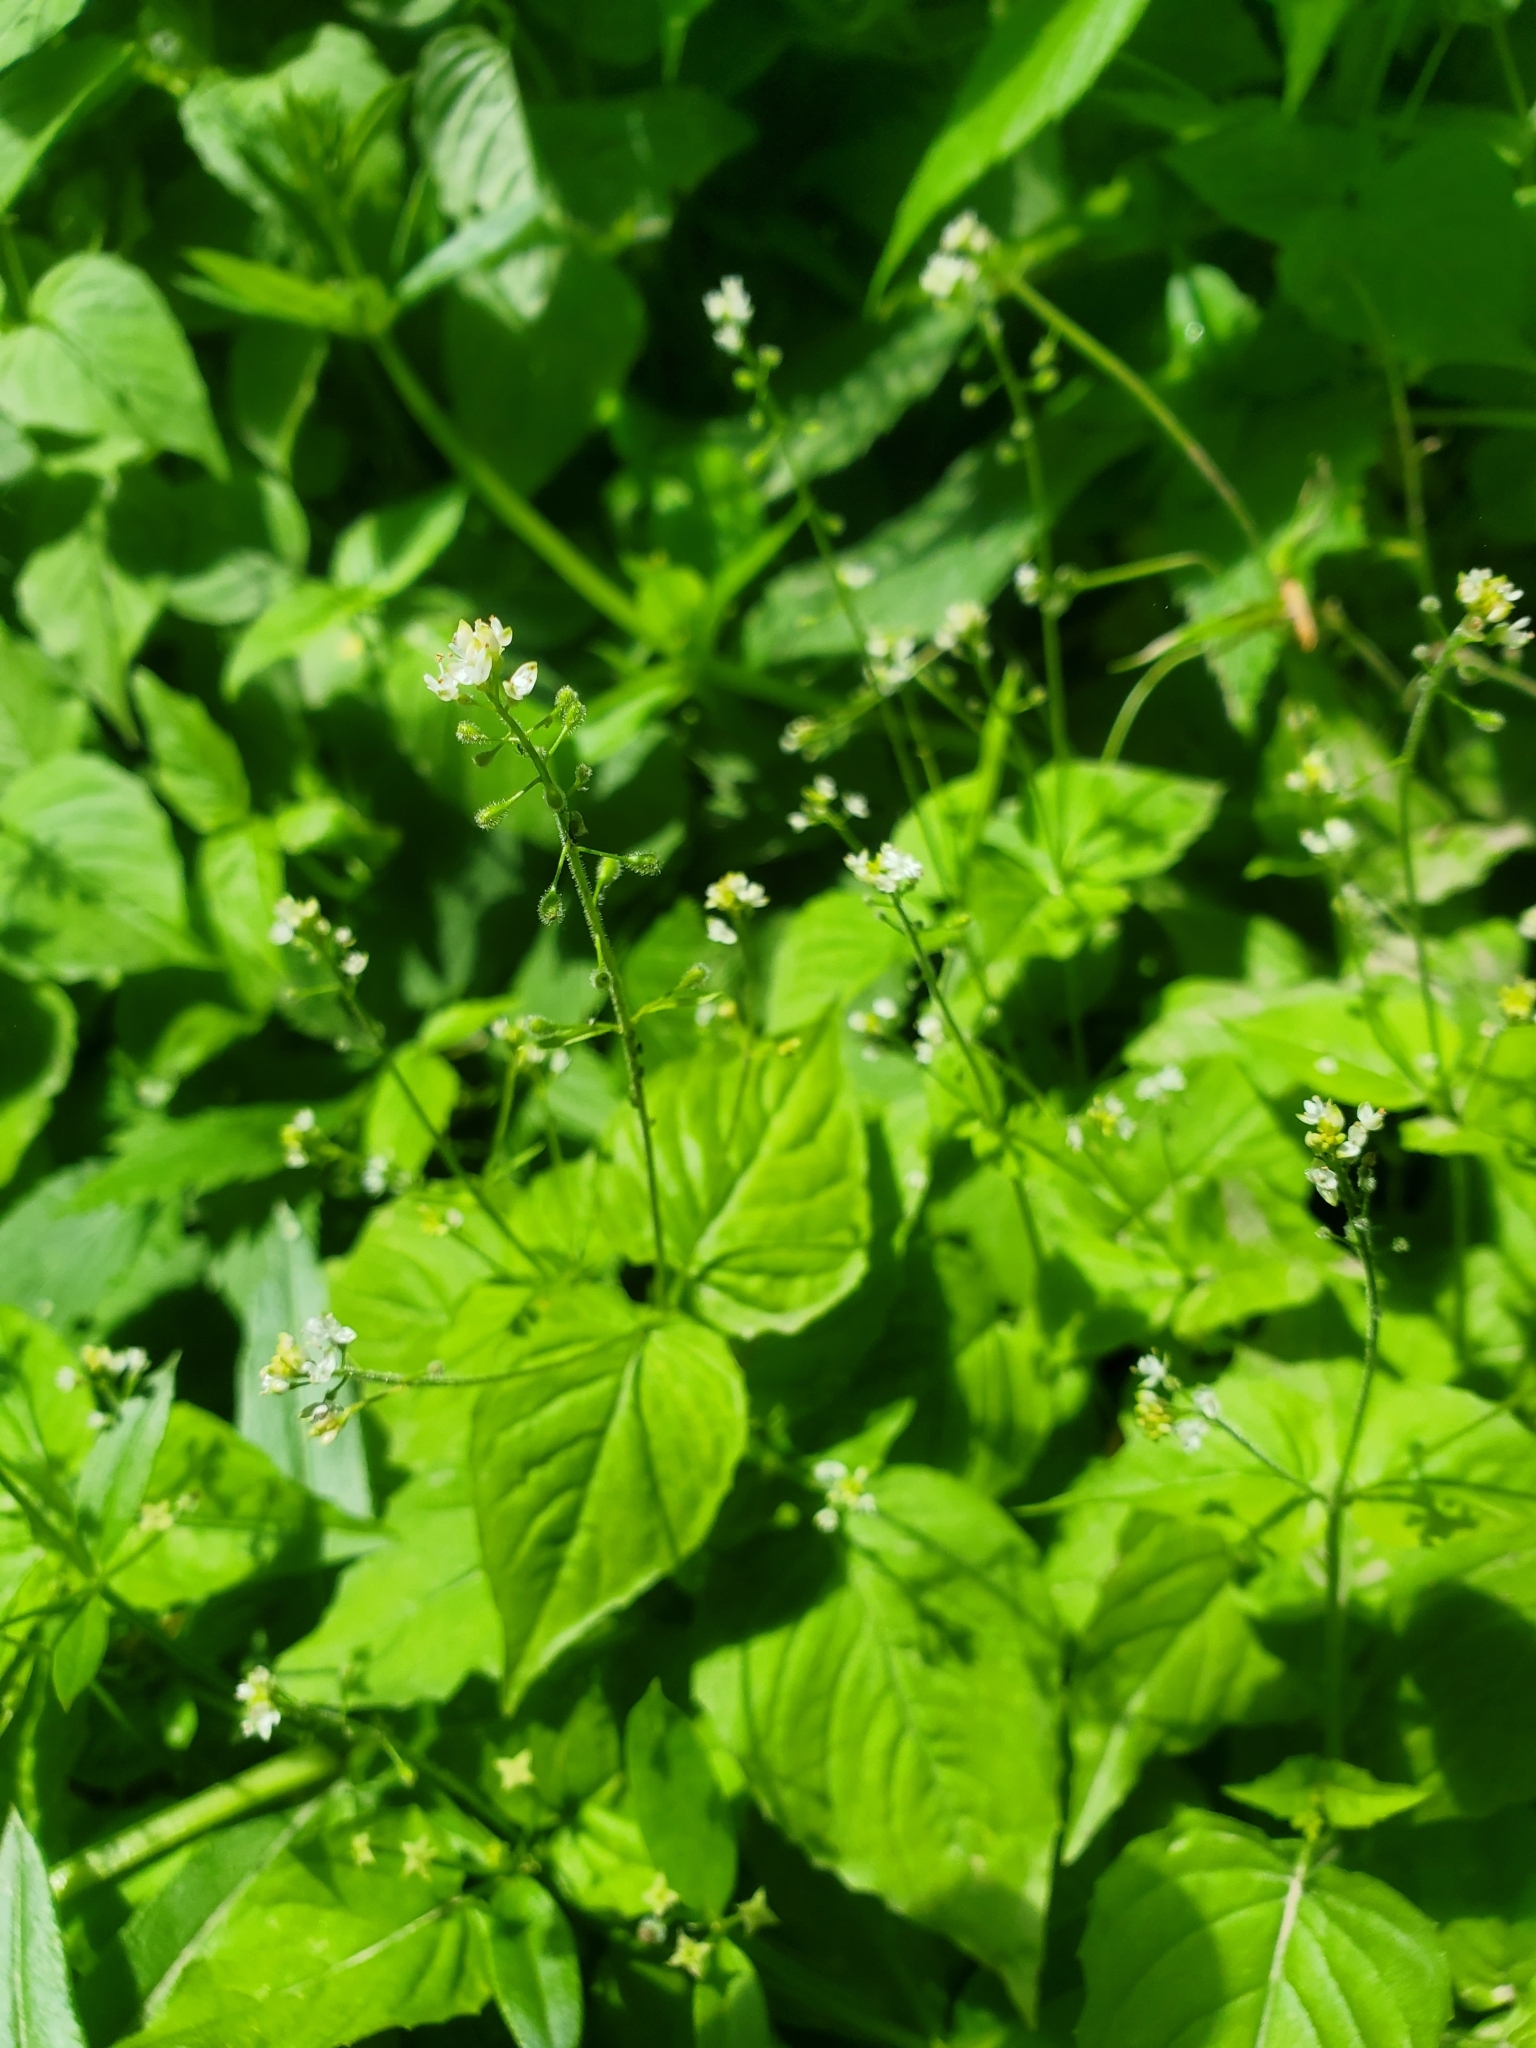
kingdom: Plantae
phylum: Tracheophyta
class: Magnoliopsida
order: Myrtales
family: Onagraceae
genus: Circaea
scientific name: Circaea alpina
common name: Alpine enchanter's-nightshade
